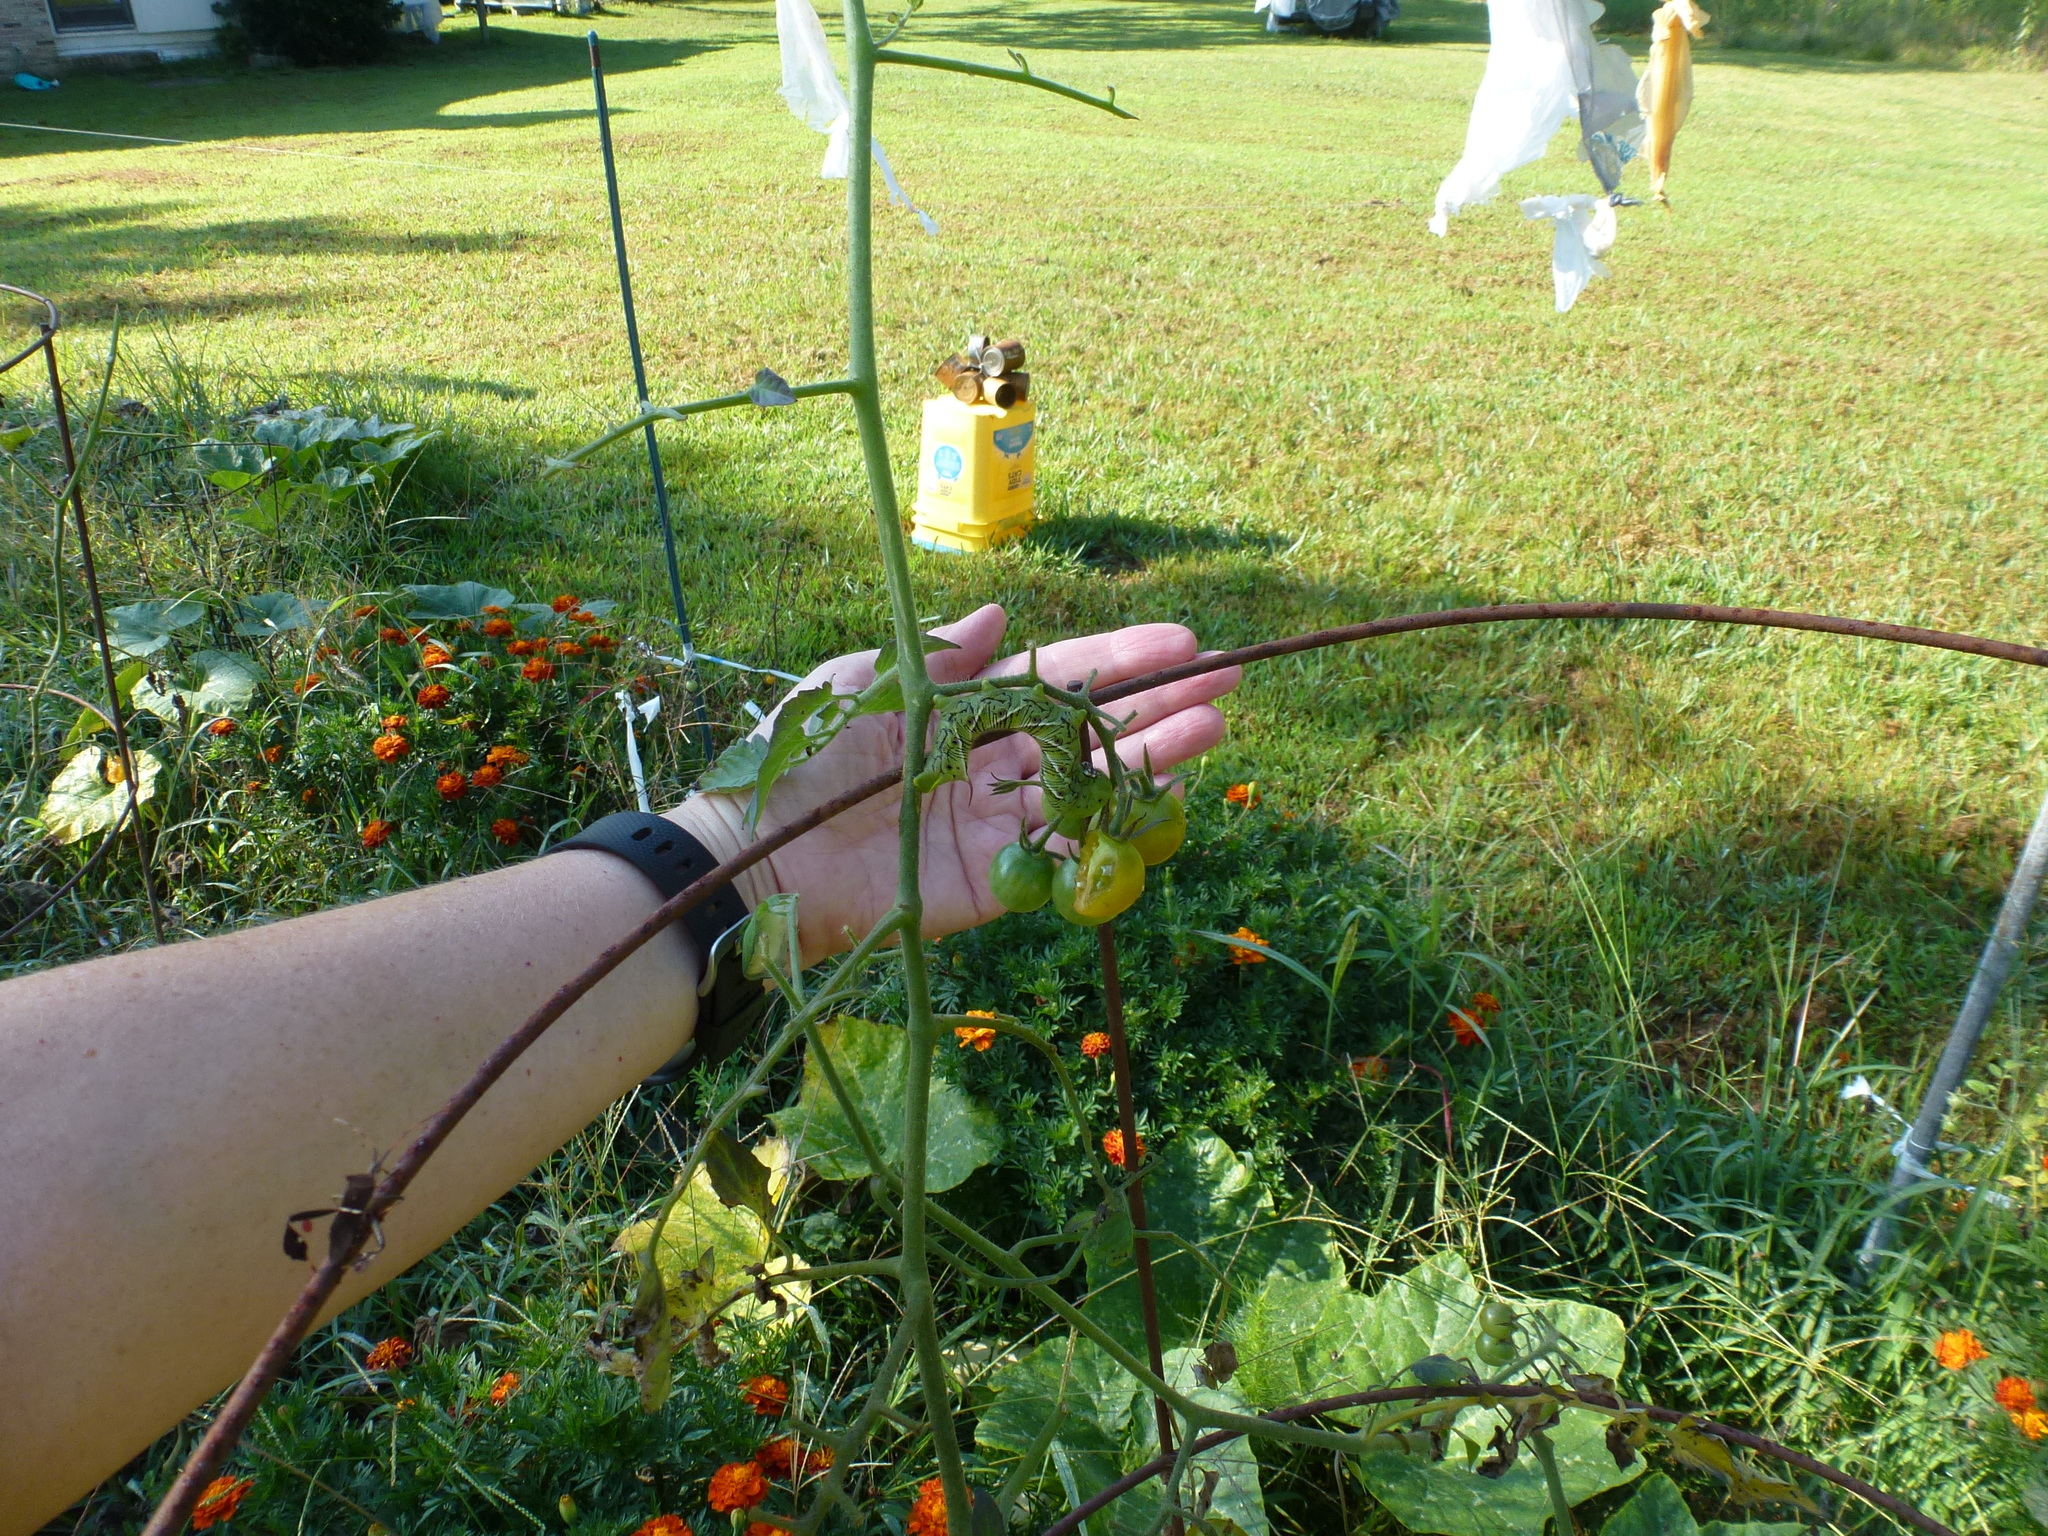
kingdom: Animalia
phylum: Arthropoda
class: Insecta
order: Lepidoptera
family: Sphingidae
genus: Manduca
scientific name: Manduca sexta
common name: Carolina sphinx
